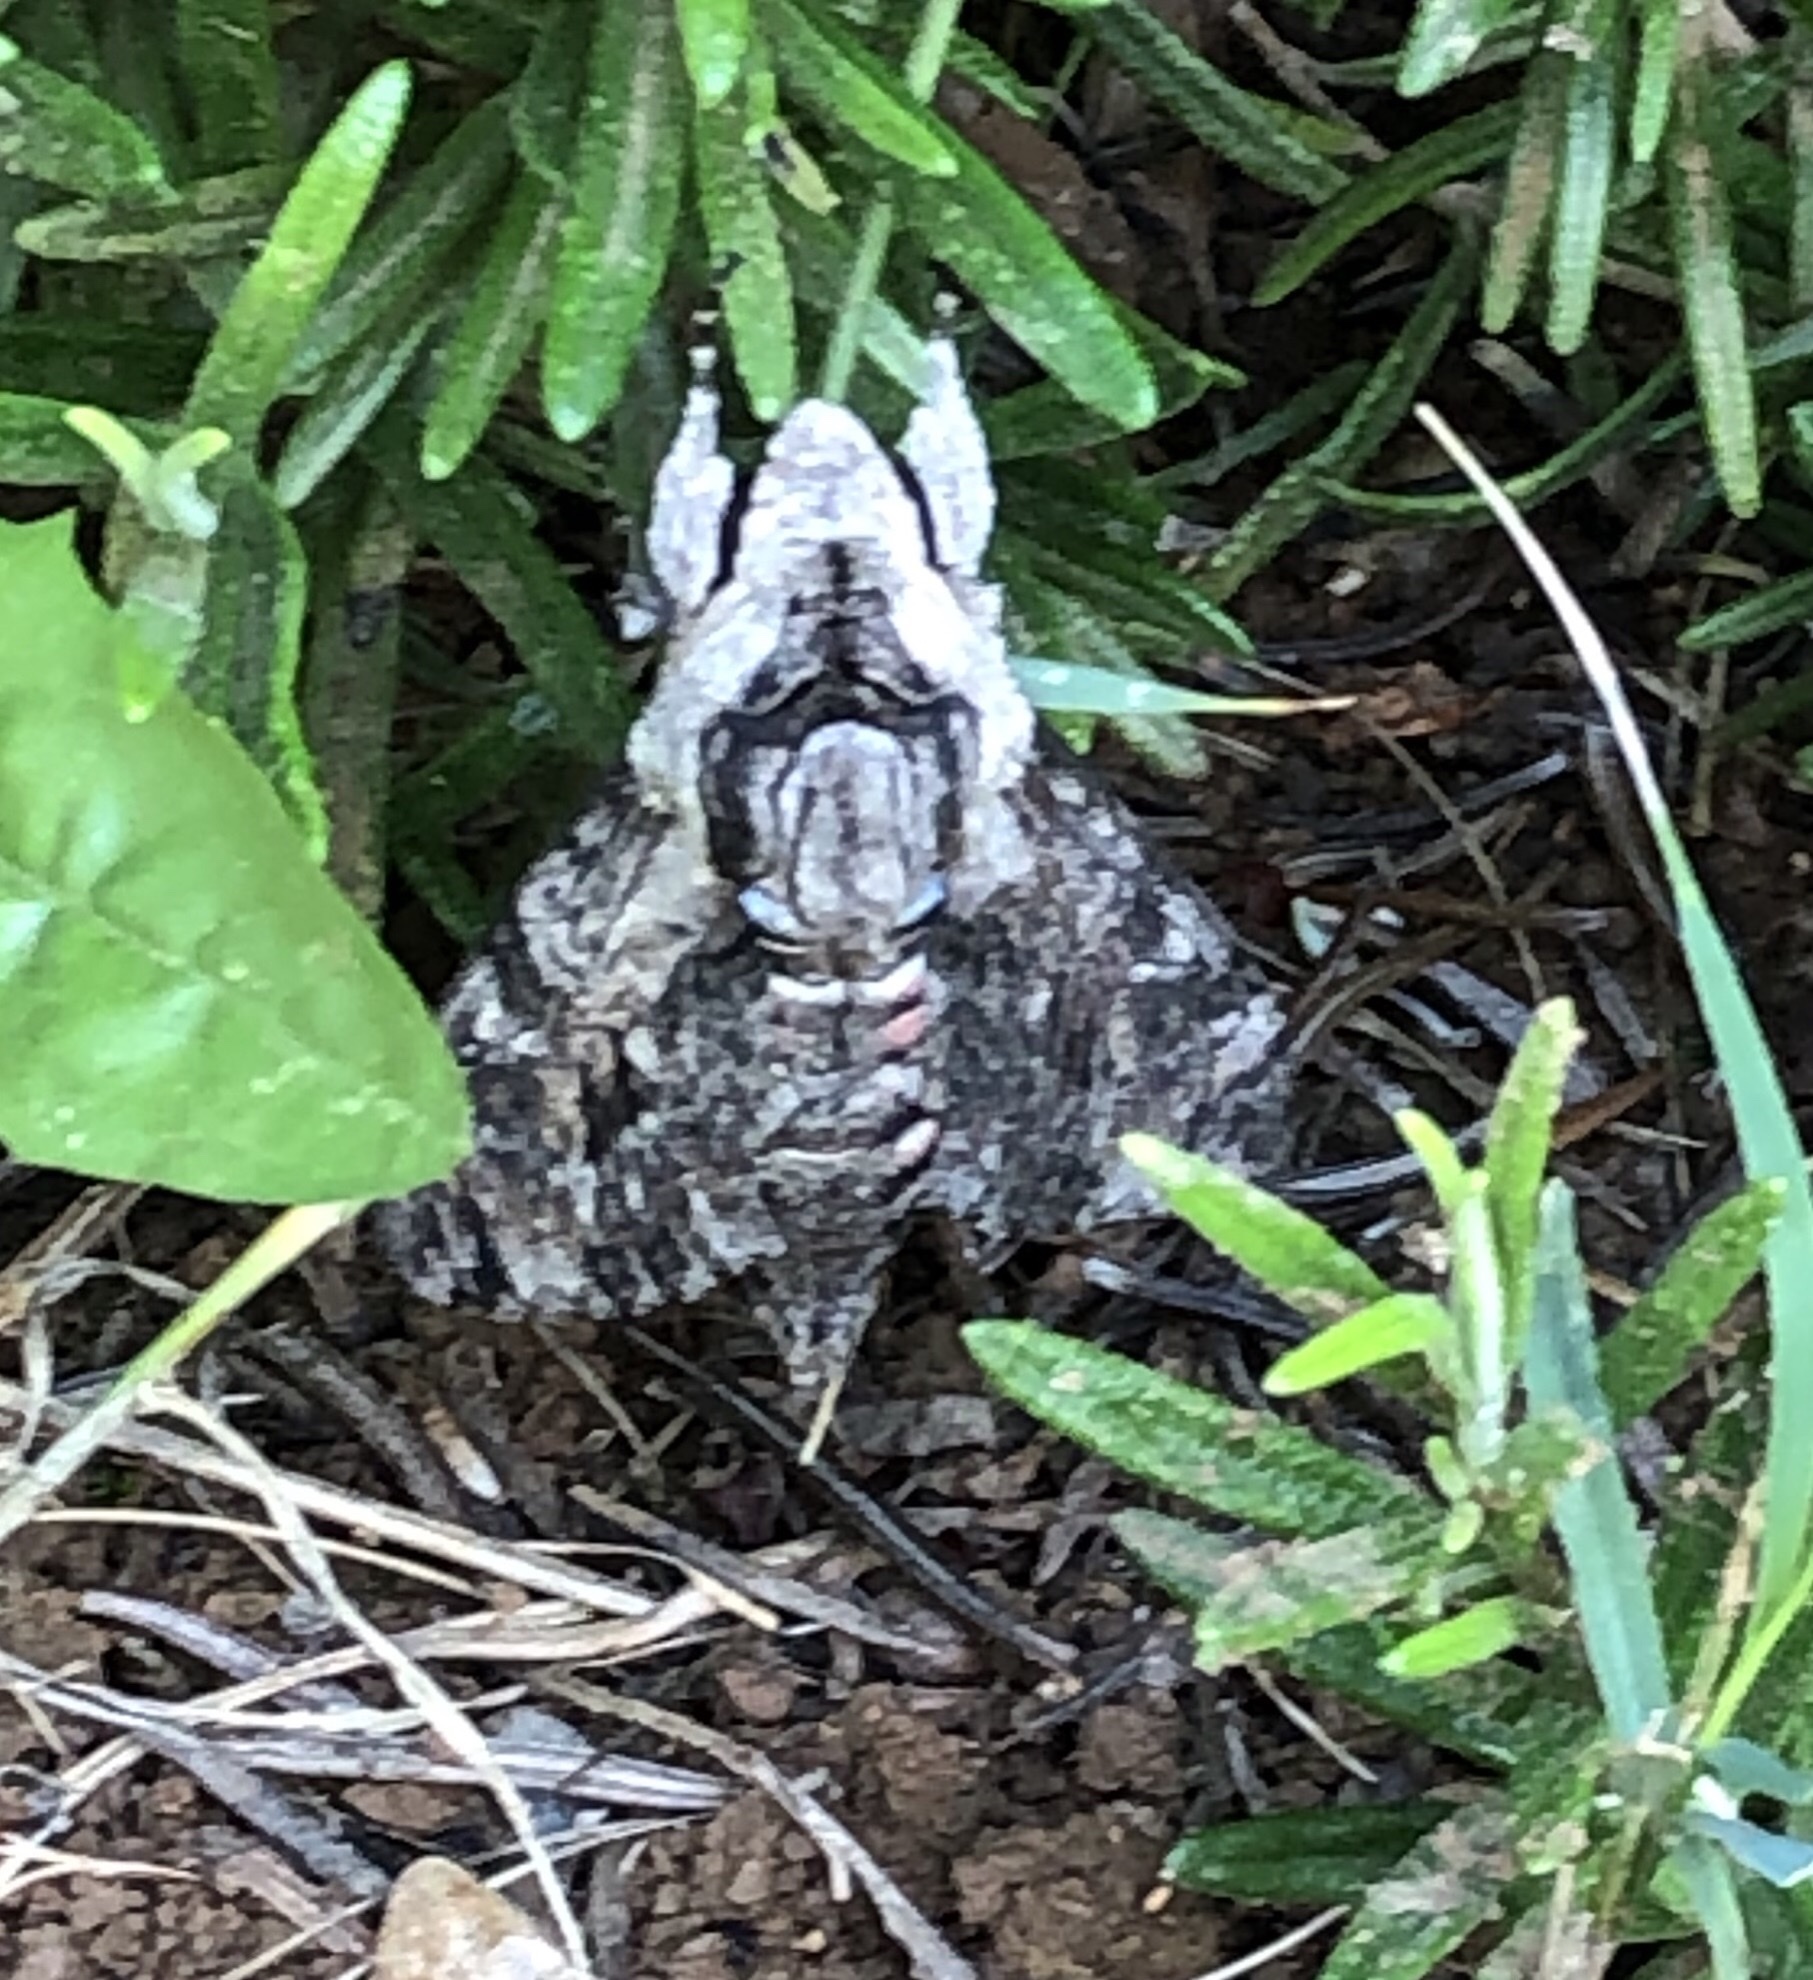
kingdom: Animalia
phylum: Arthropoda
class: Insecta
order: Lepidoptera
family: Sphingidae
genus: Agrius
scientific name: Agrius convolvuli
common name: Convolvulus hawkmoth
